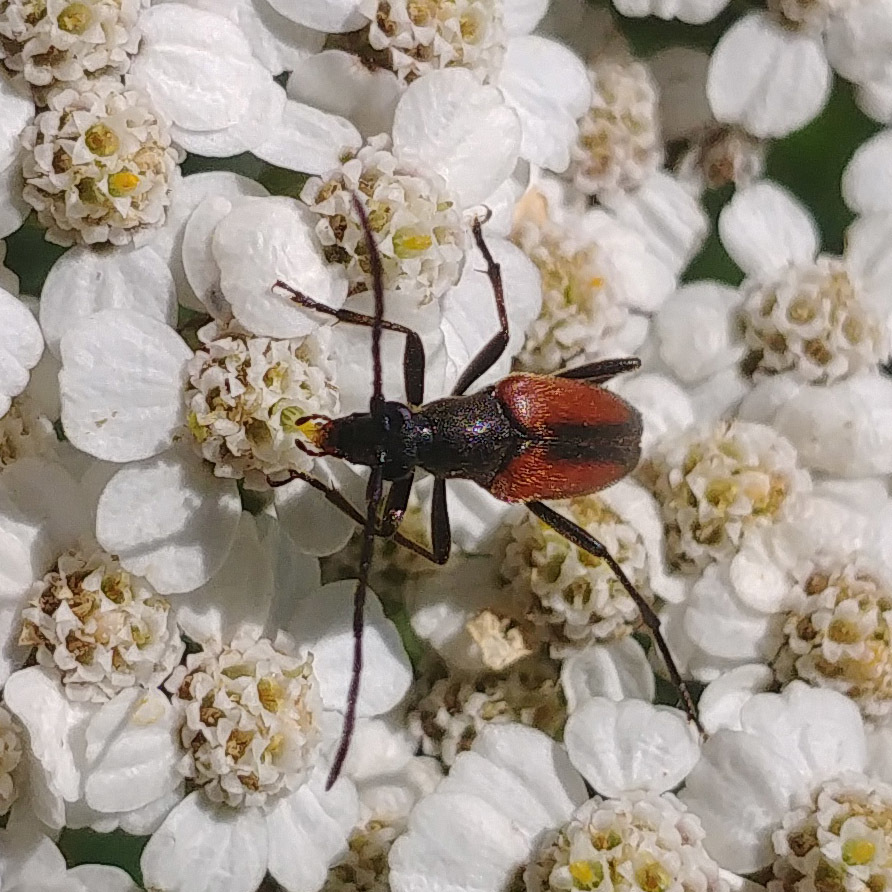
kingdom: Animalia
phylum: Arthropoda
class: Insecta
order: Coleoptera
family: Cerambycidae
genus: Stenurella
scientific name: Stenurella melanura
